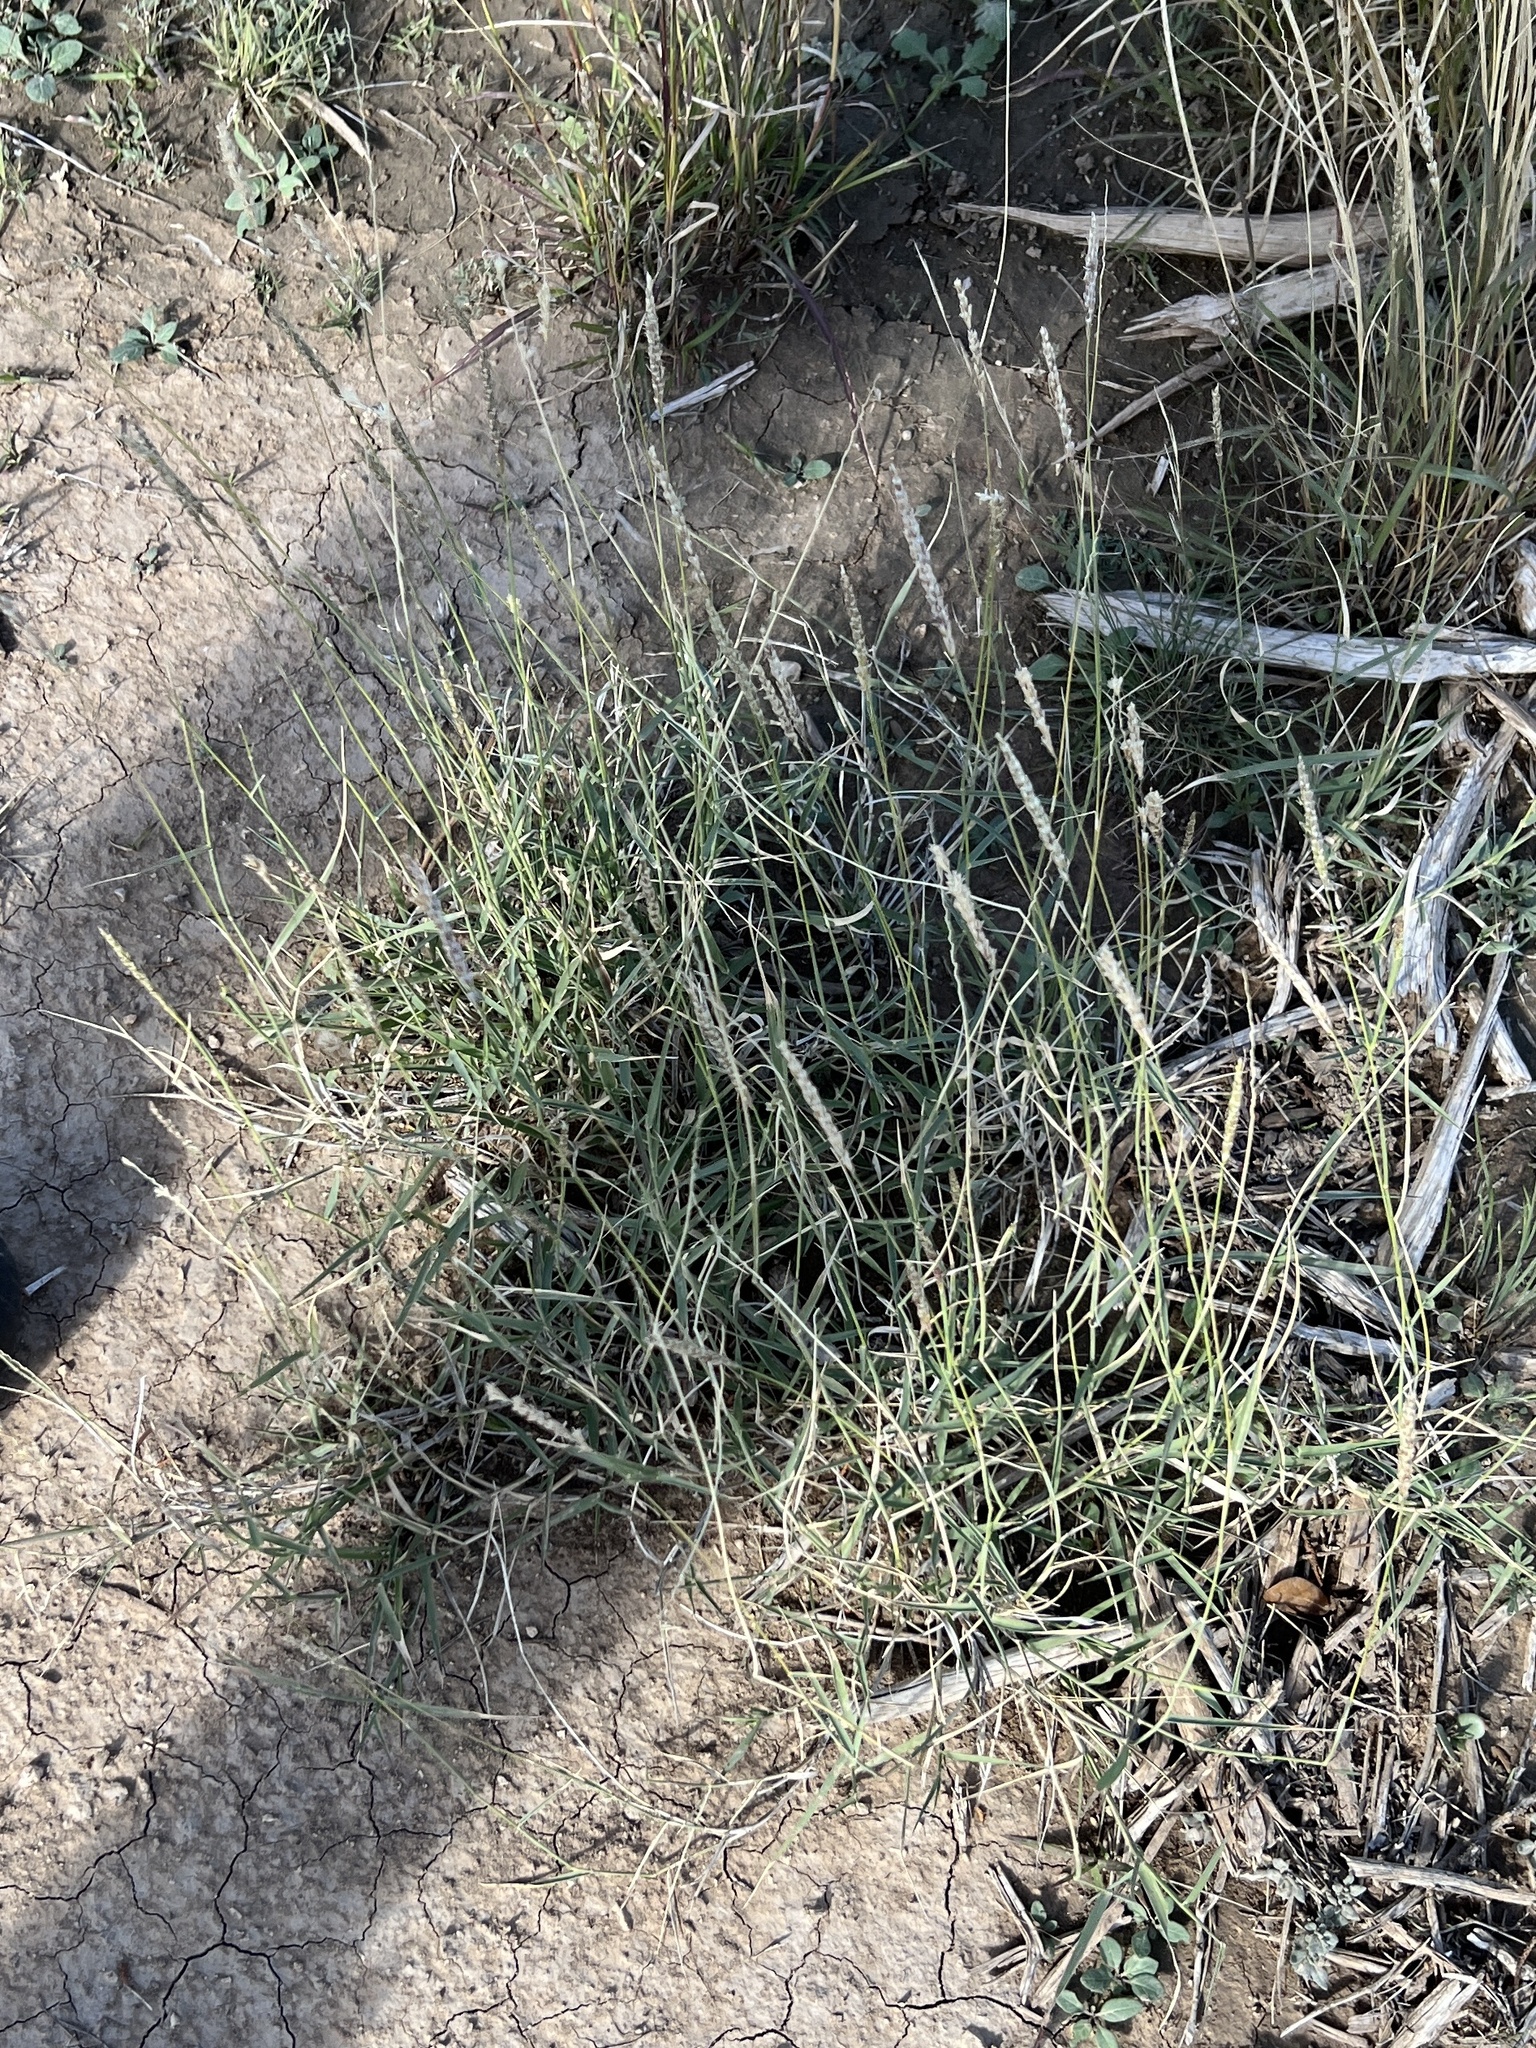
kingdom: Plantae
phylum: Tracheophyta
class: Liliopsida
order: Poales
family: Poaceae
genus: Hilaria
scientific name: Hilaria mutica
